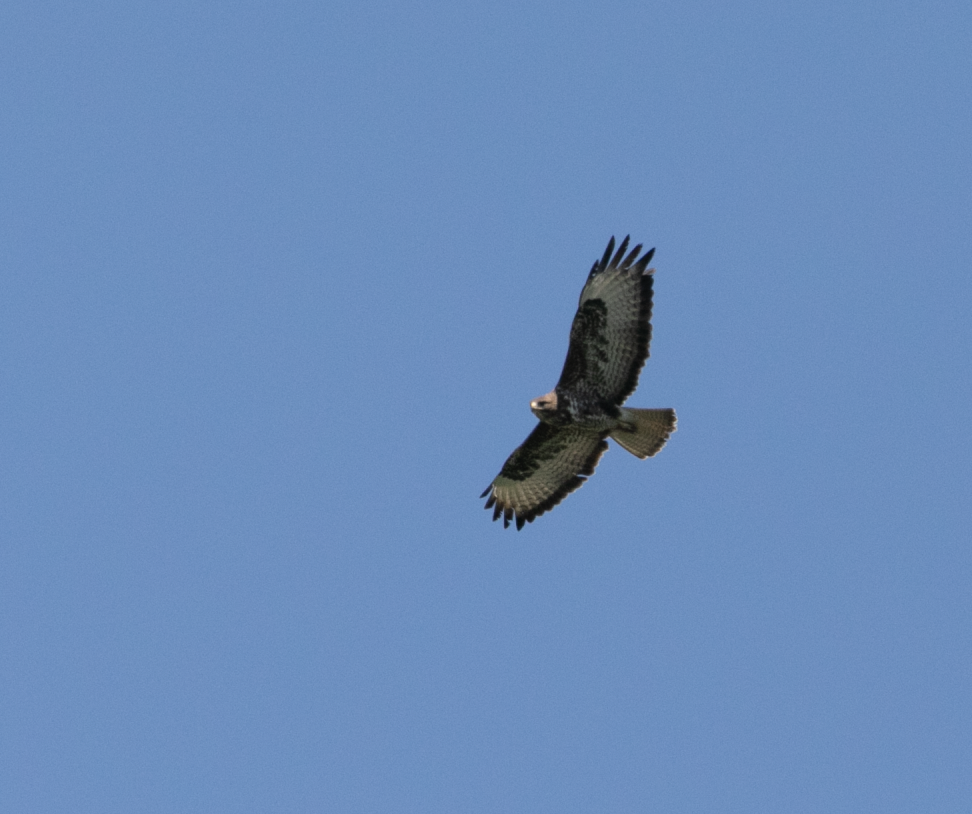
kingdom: Animalia
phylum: Chordata
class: Aves
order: Accipitriformes
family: Accipitridae
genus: Buteo
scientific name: Buteo buteo
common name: Common buzzard
